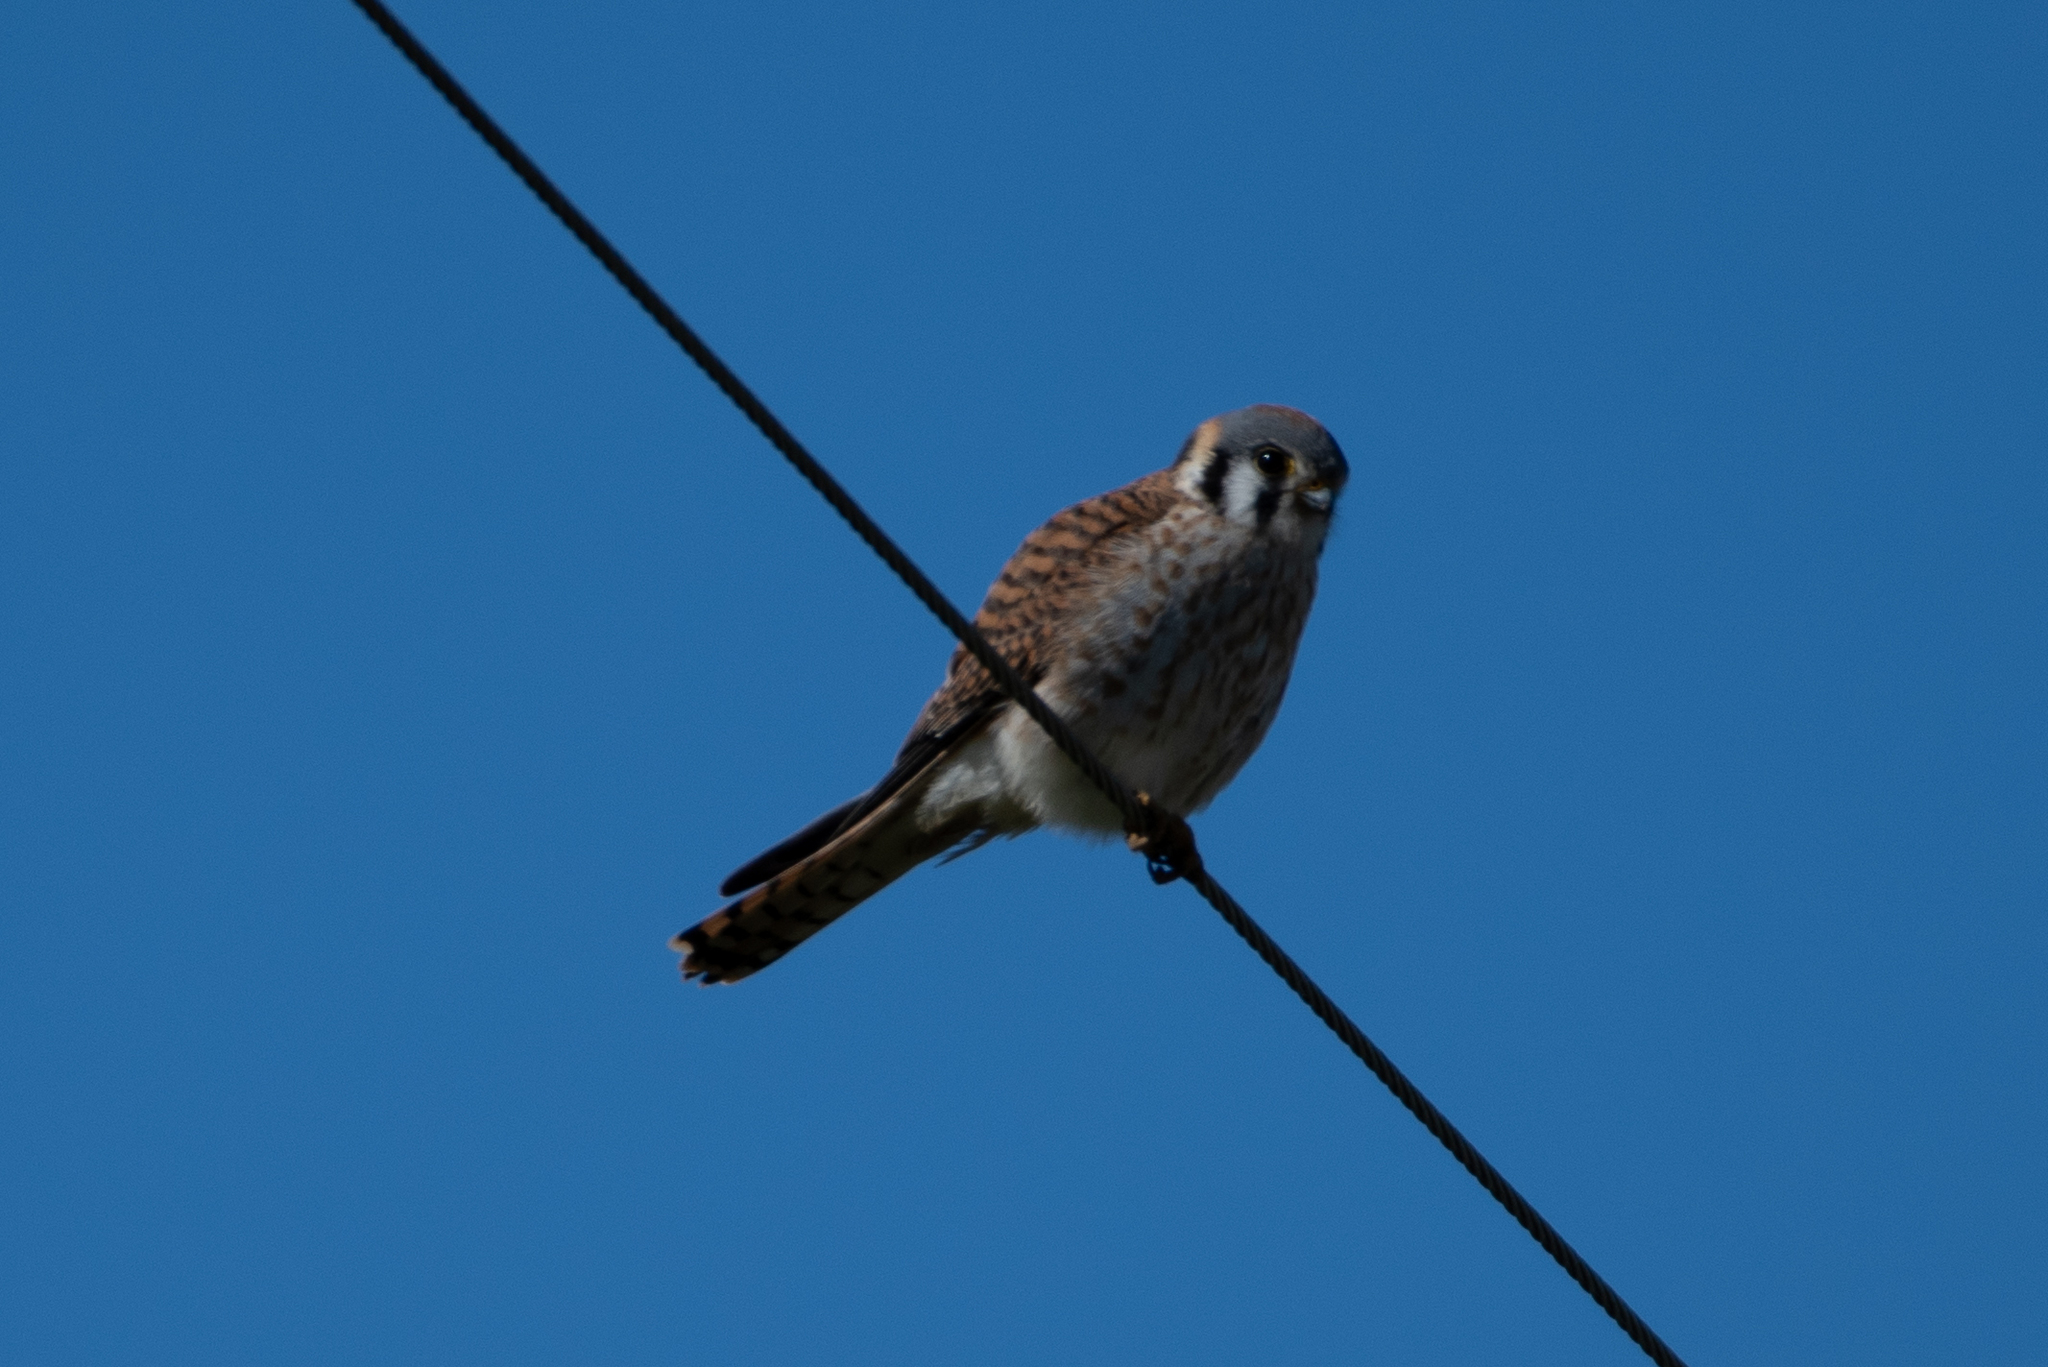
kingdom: Animalia
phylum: Chordata
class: Aves
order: Falconiformes
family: Falconidae
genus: Falco
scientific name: Falco sparverius
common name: American kestrel
